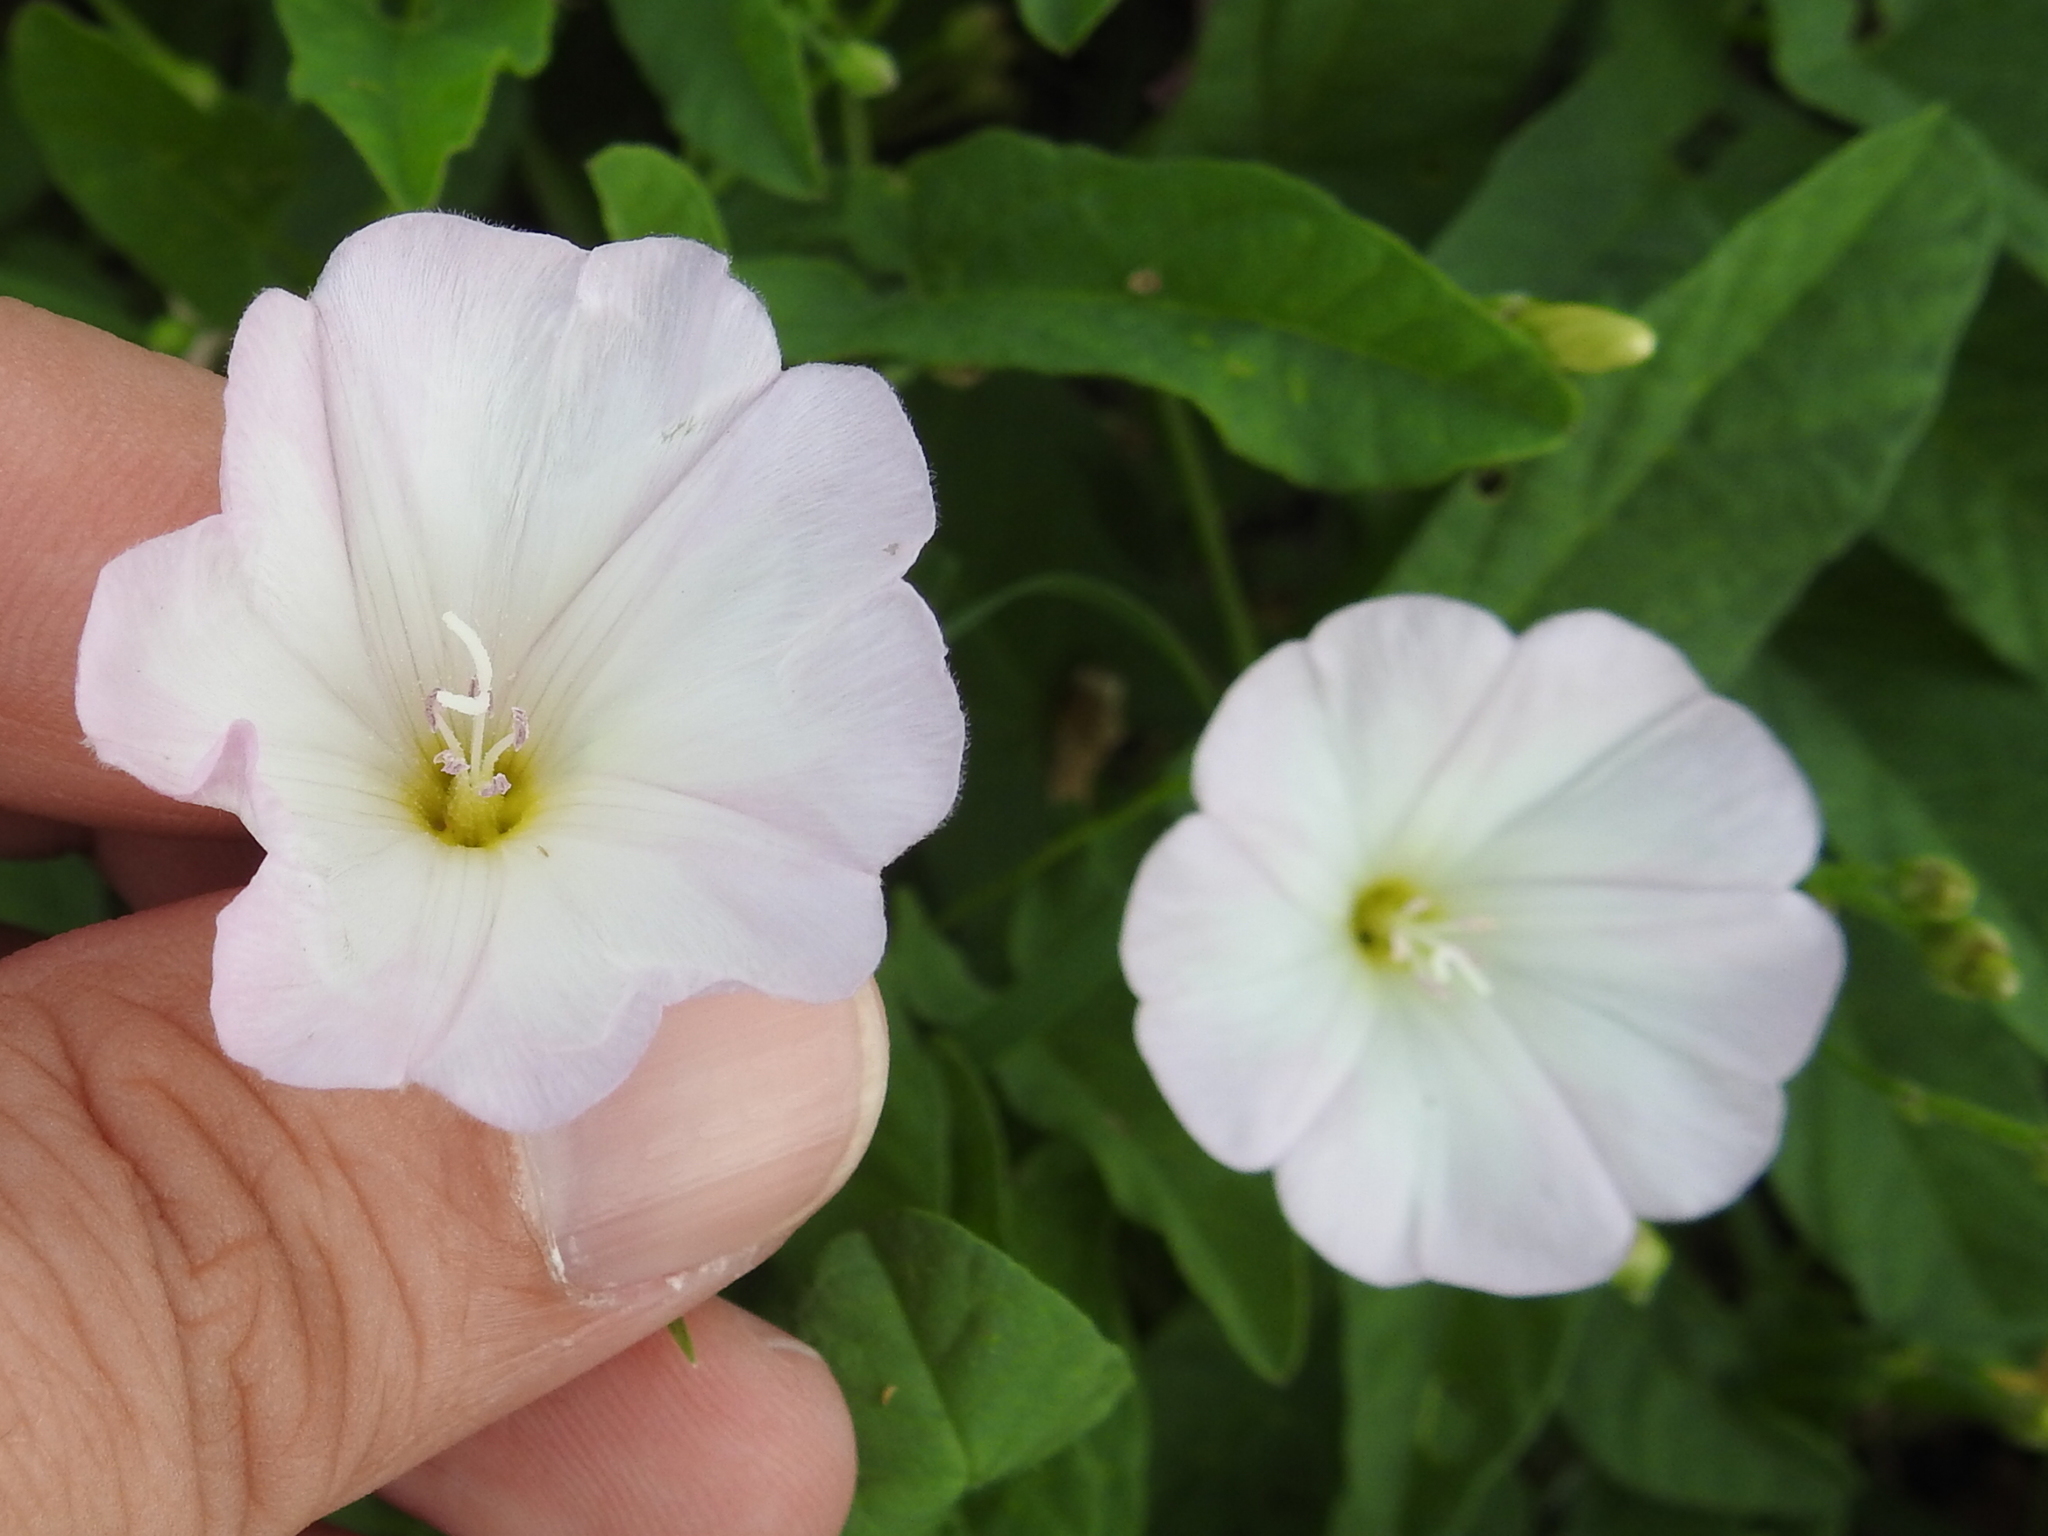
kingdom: Plantae
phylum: Tracheophyta
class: Magnoliopsida
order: Solanales
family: Convolvulaceae
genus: Convolvulus
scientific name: Convolvulus arvensis
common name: Field bindweed
